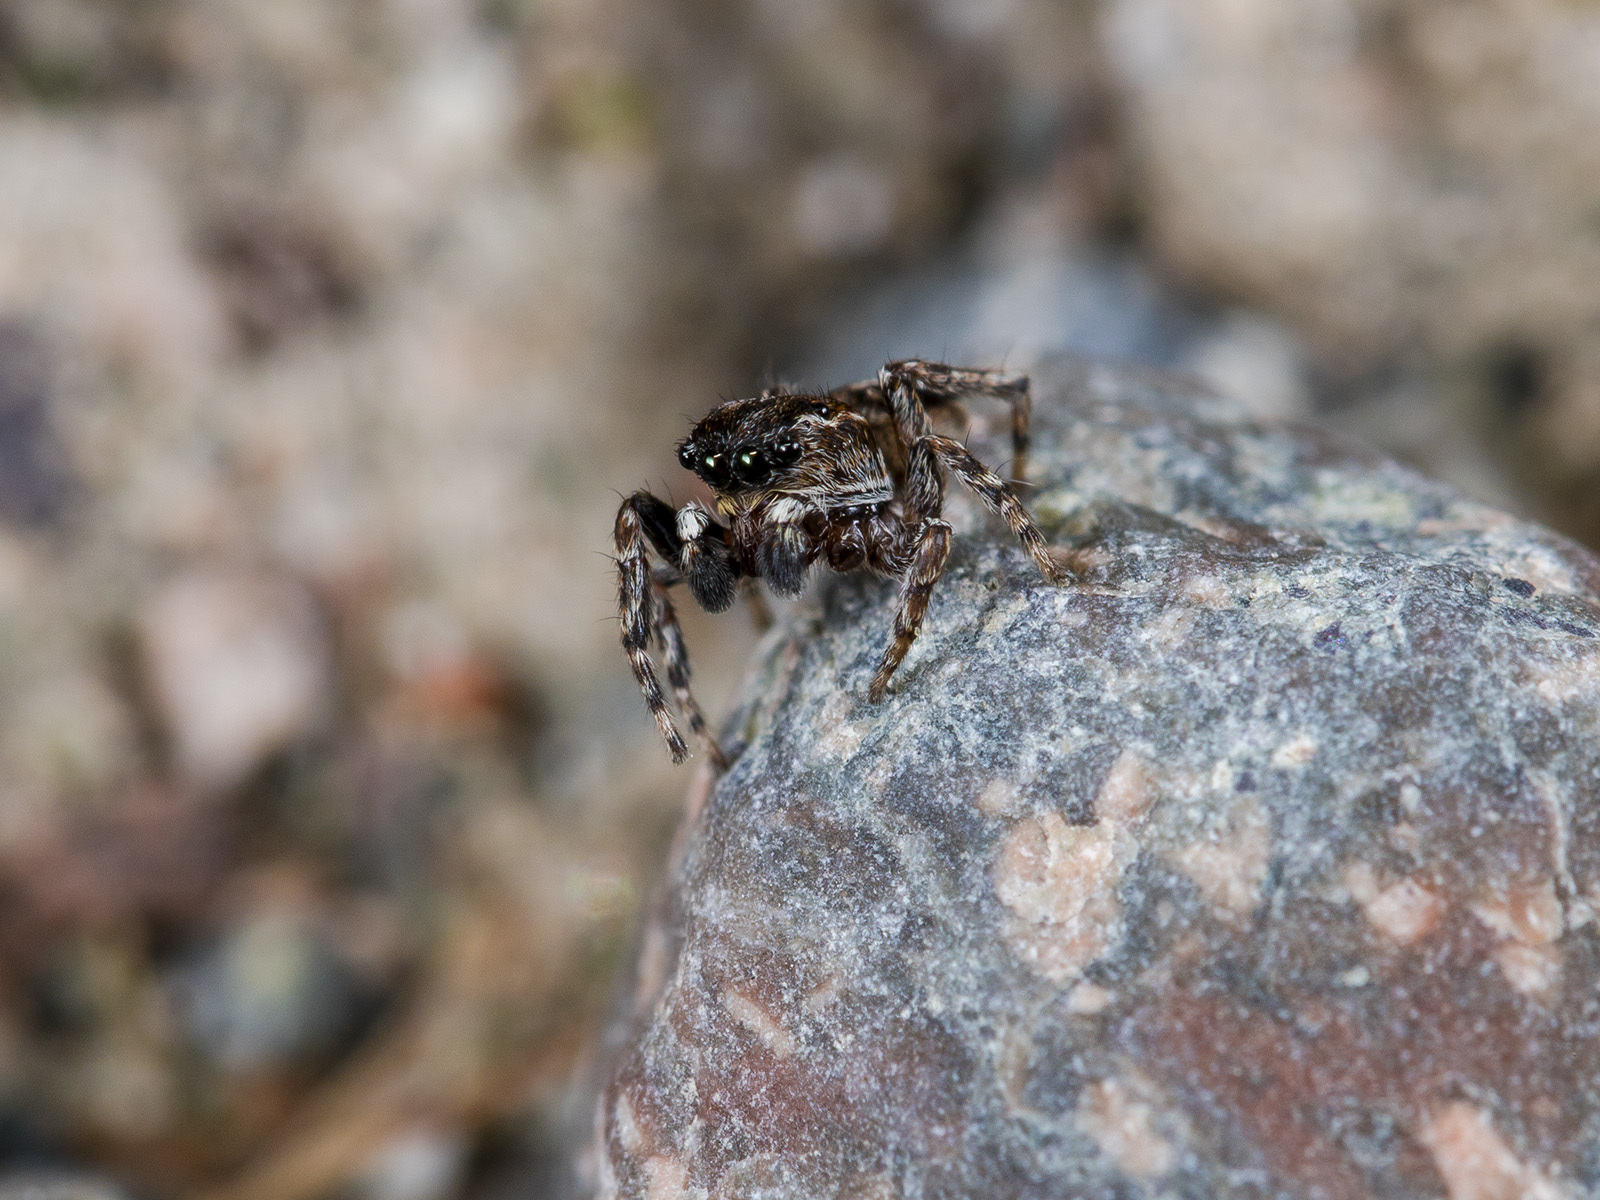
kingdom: Animalia
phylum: Arthropoda
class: Arachnida
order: Araneae
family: Salticidae
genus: Attulus
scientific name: Attulus zimmermanni
